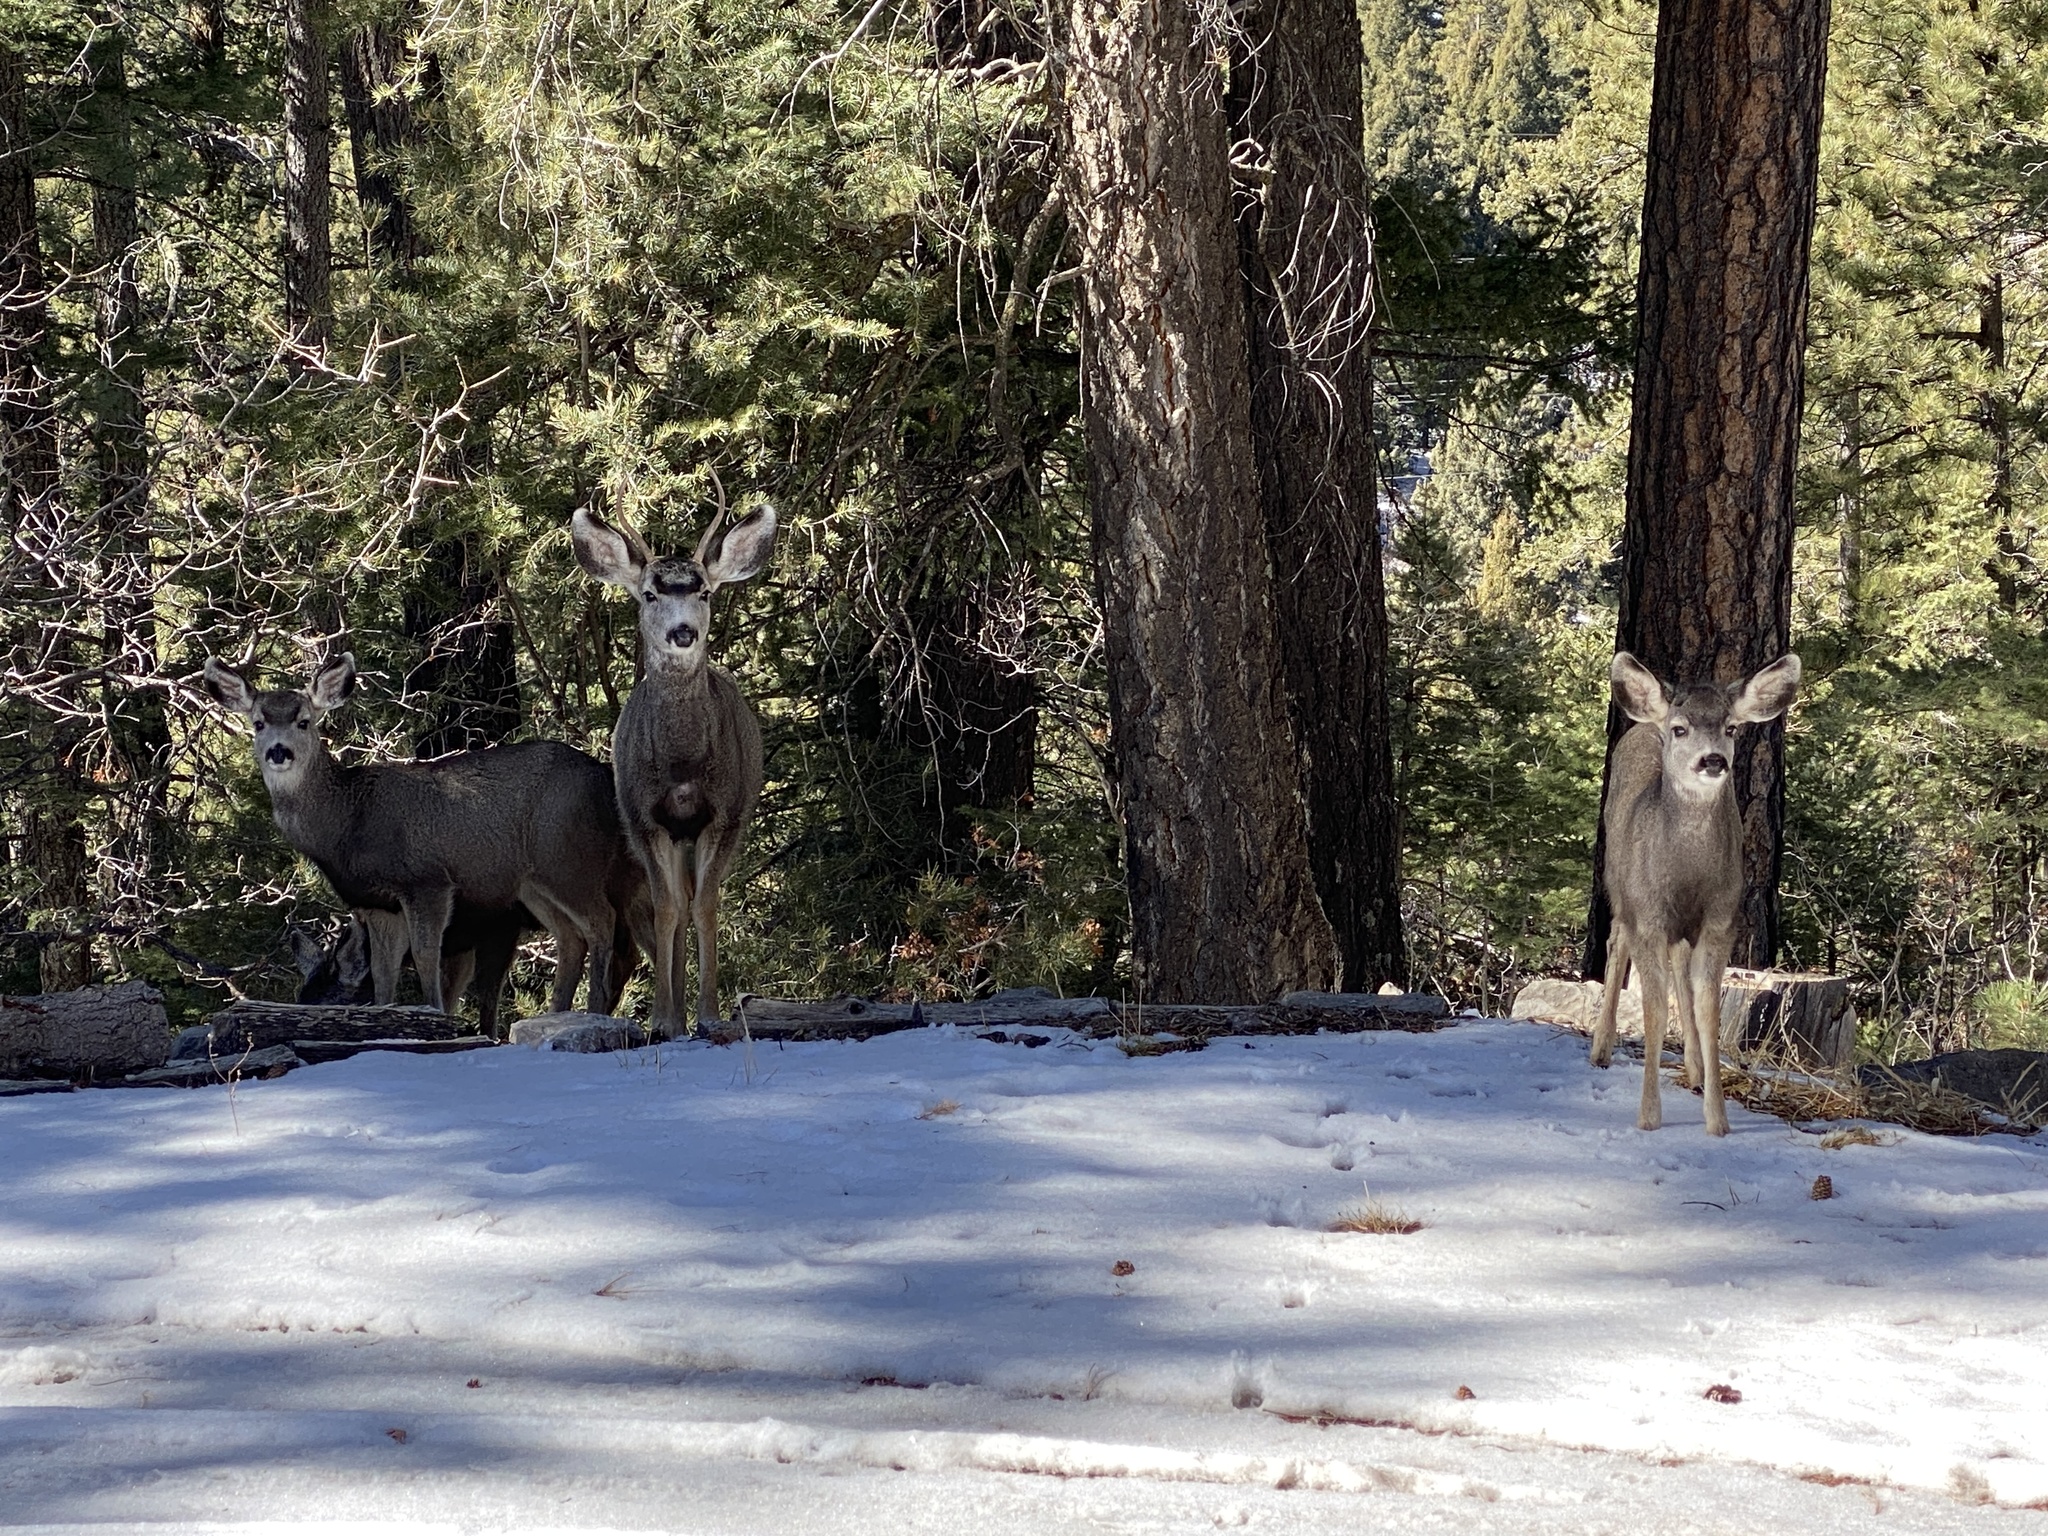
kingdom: Animalia
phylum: Chordata
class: Mammalia
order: Artiodactyla
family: Cervidae
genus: Odocoileus
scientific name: Odocoileus hemionus
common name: Mule deer
